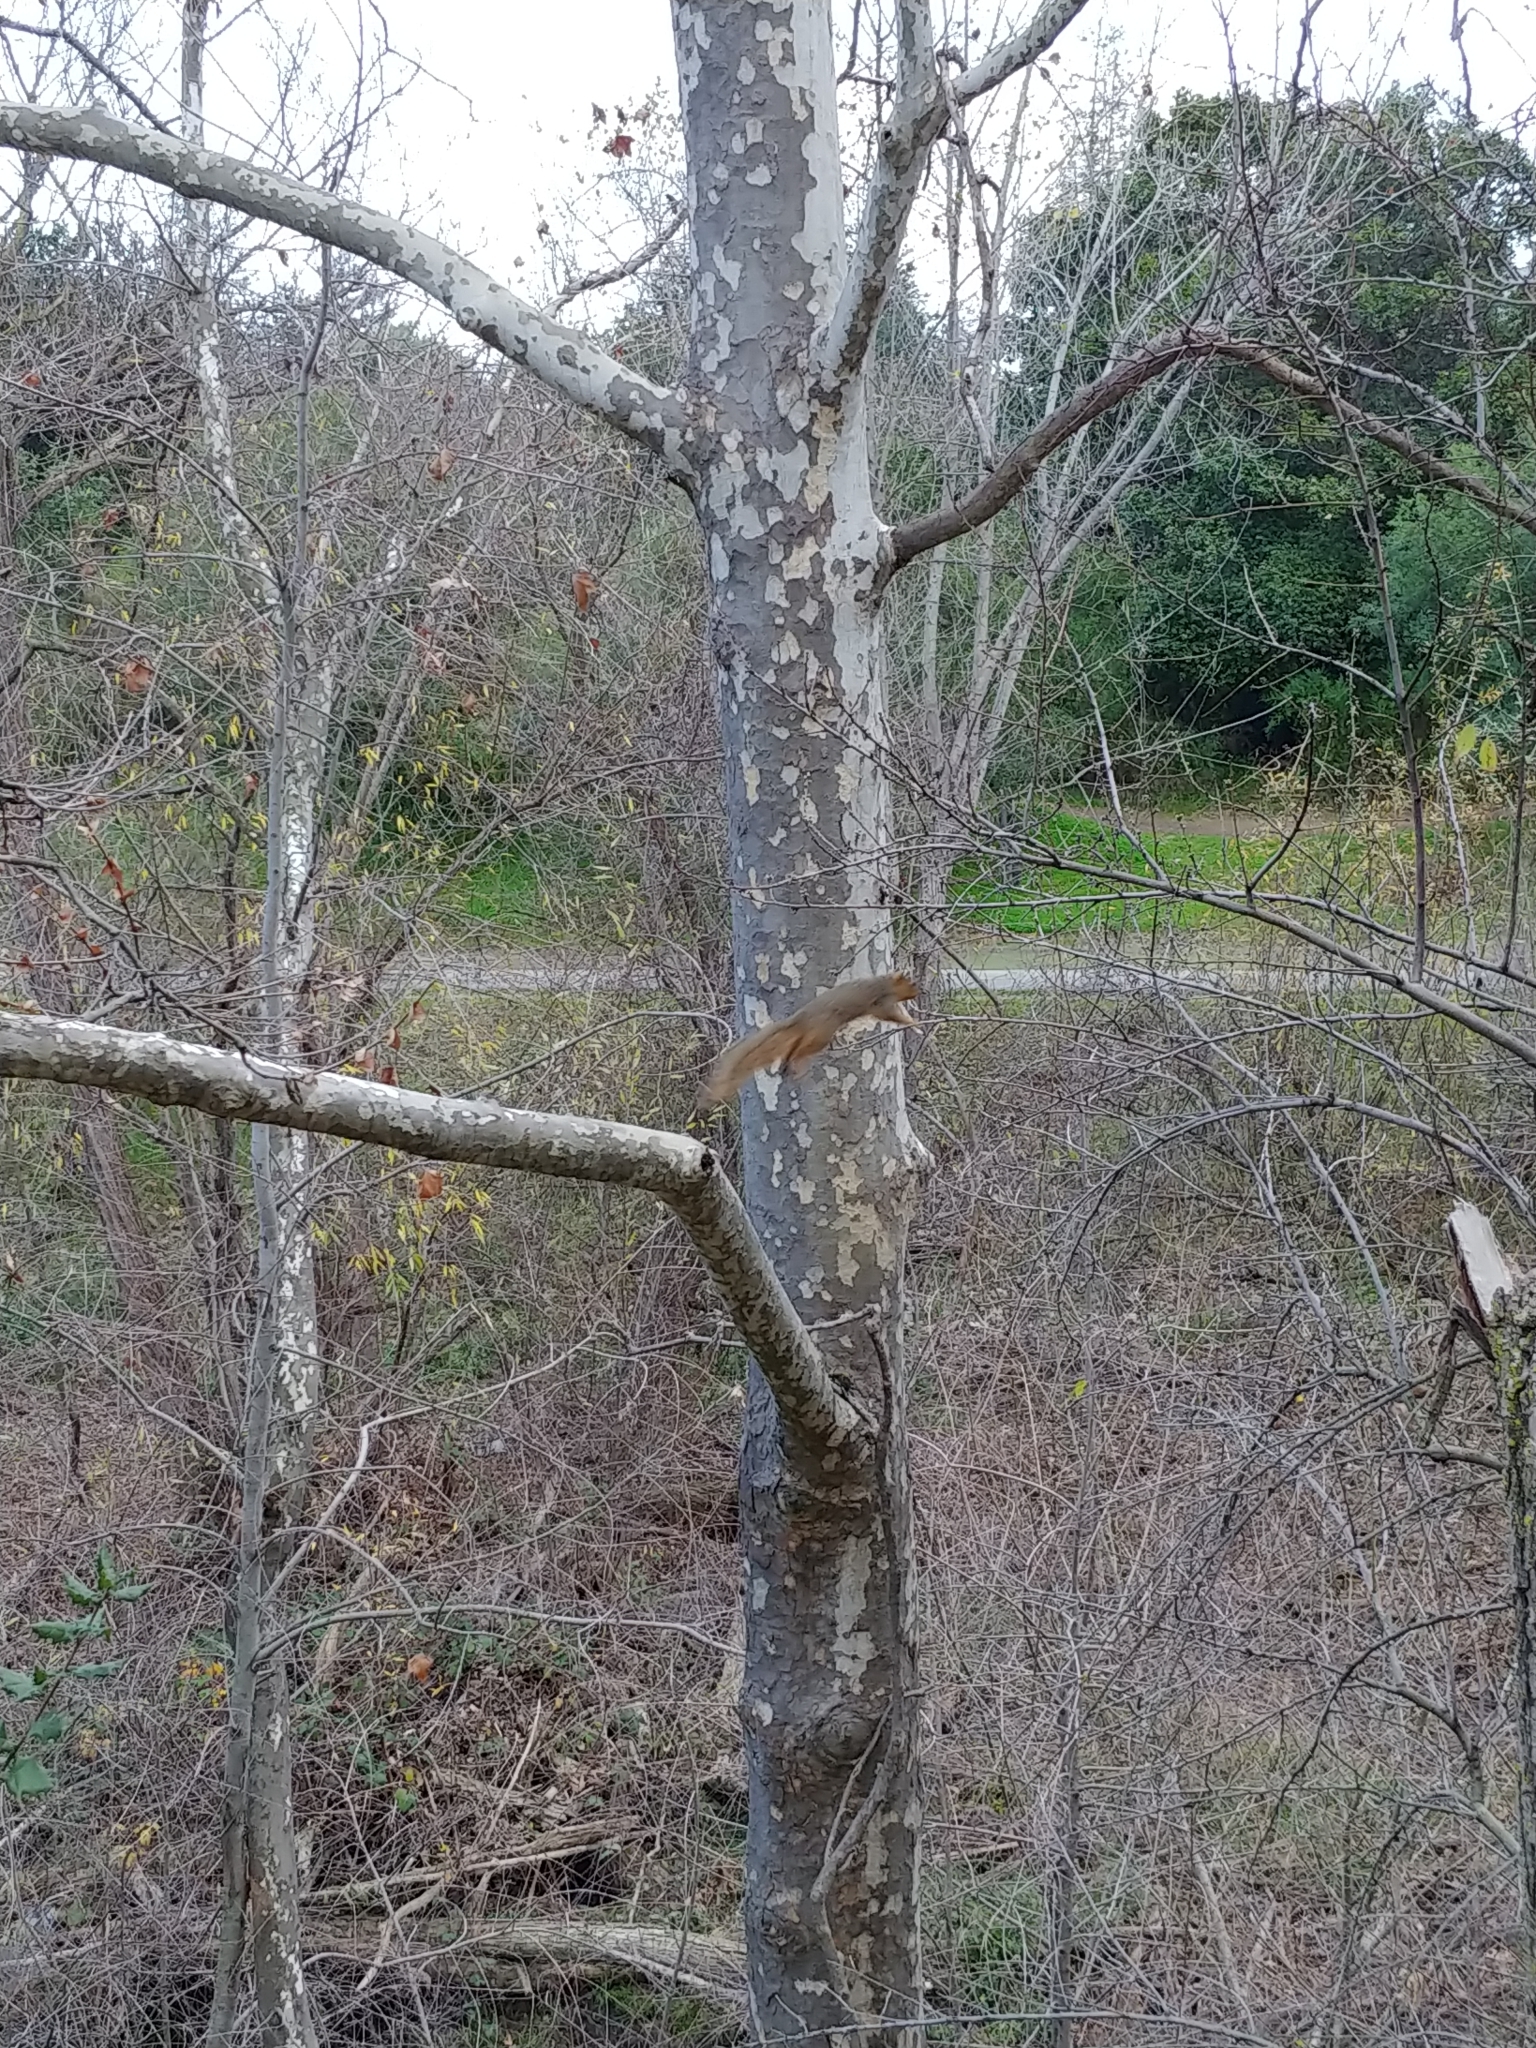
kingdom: Animalia
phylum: Chordata
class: Mammalia
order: Rodentia
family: Sciuridae
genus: Sciurus
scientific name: Sciurus niger
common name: Fox squirrel
